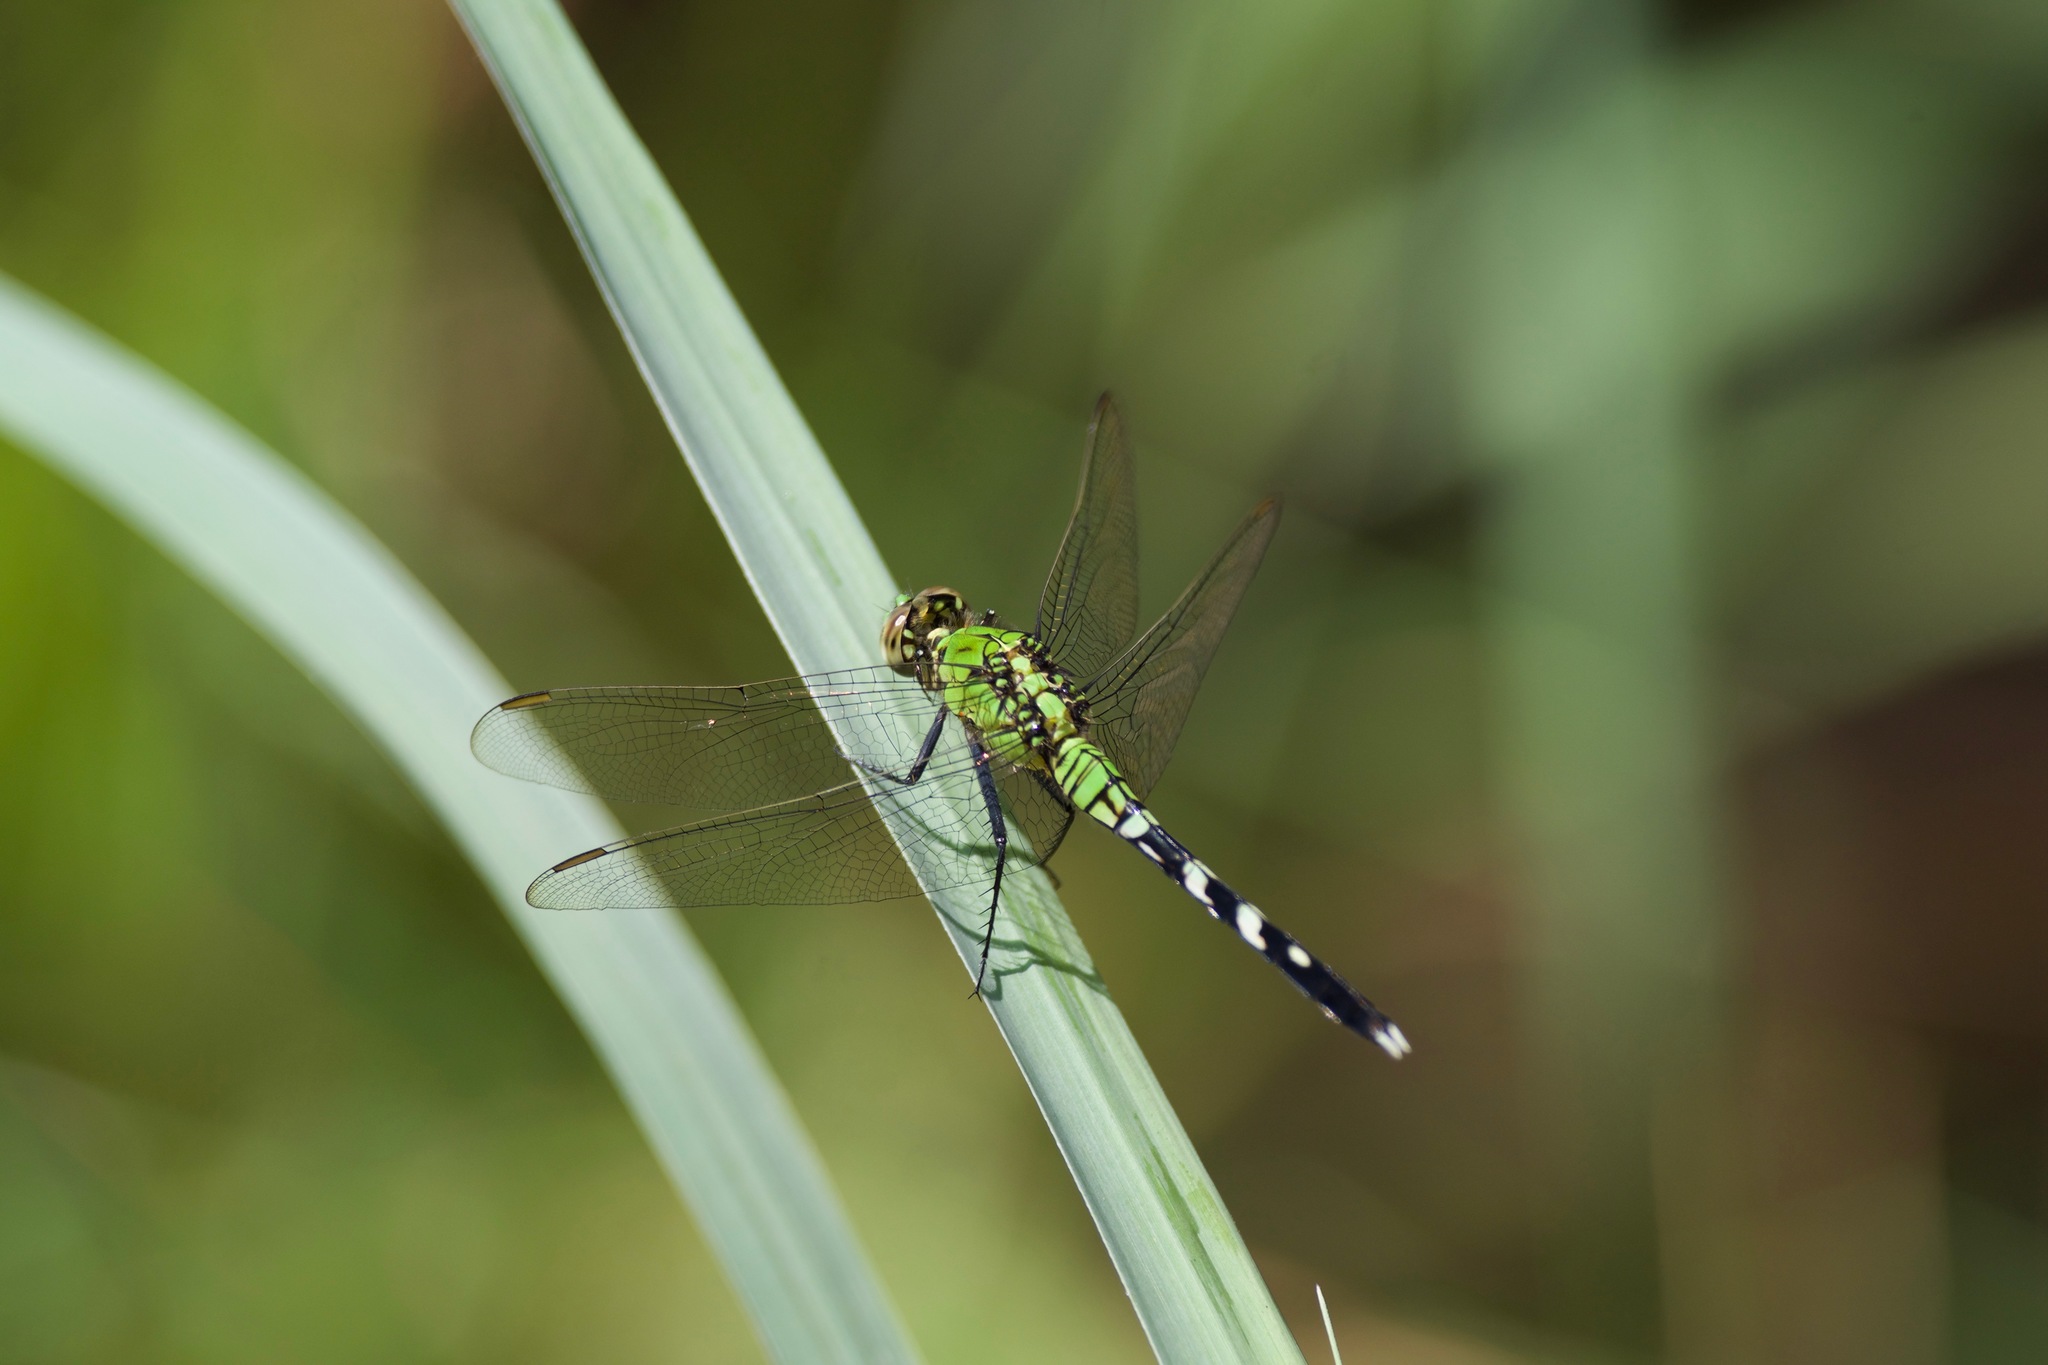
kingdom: Animalia
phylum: Arthropoda
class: Insecta
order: Odonata
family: Libellulidae
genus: Erythemis
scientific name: Erythemis simplicicollis
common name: Eastern pondhawk
